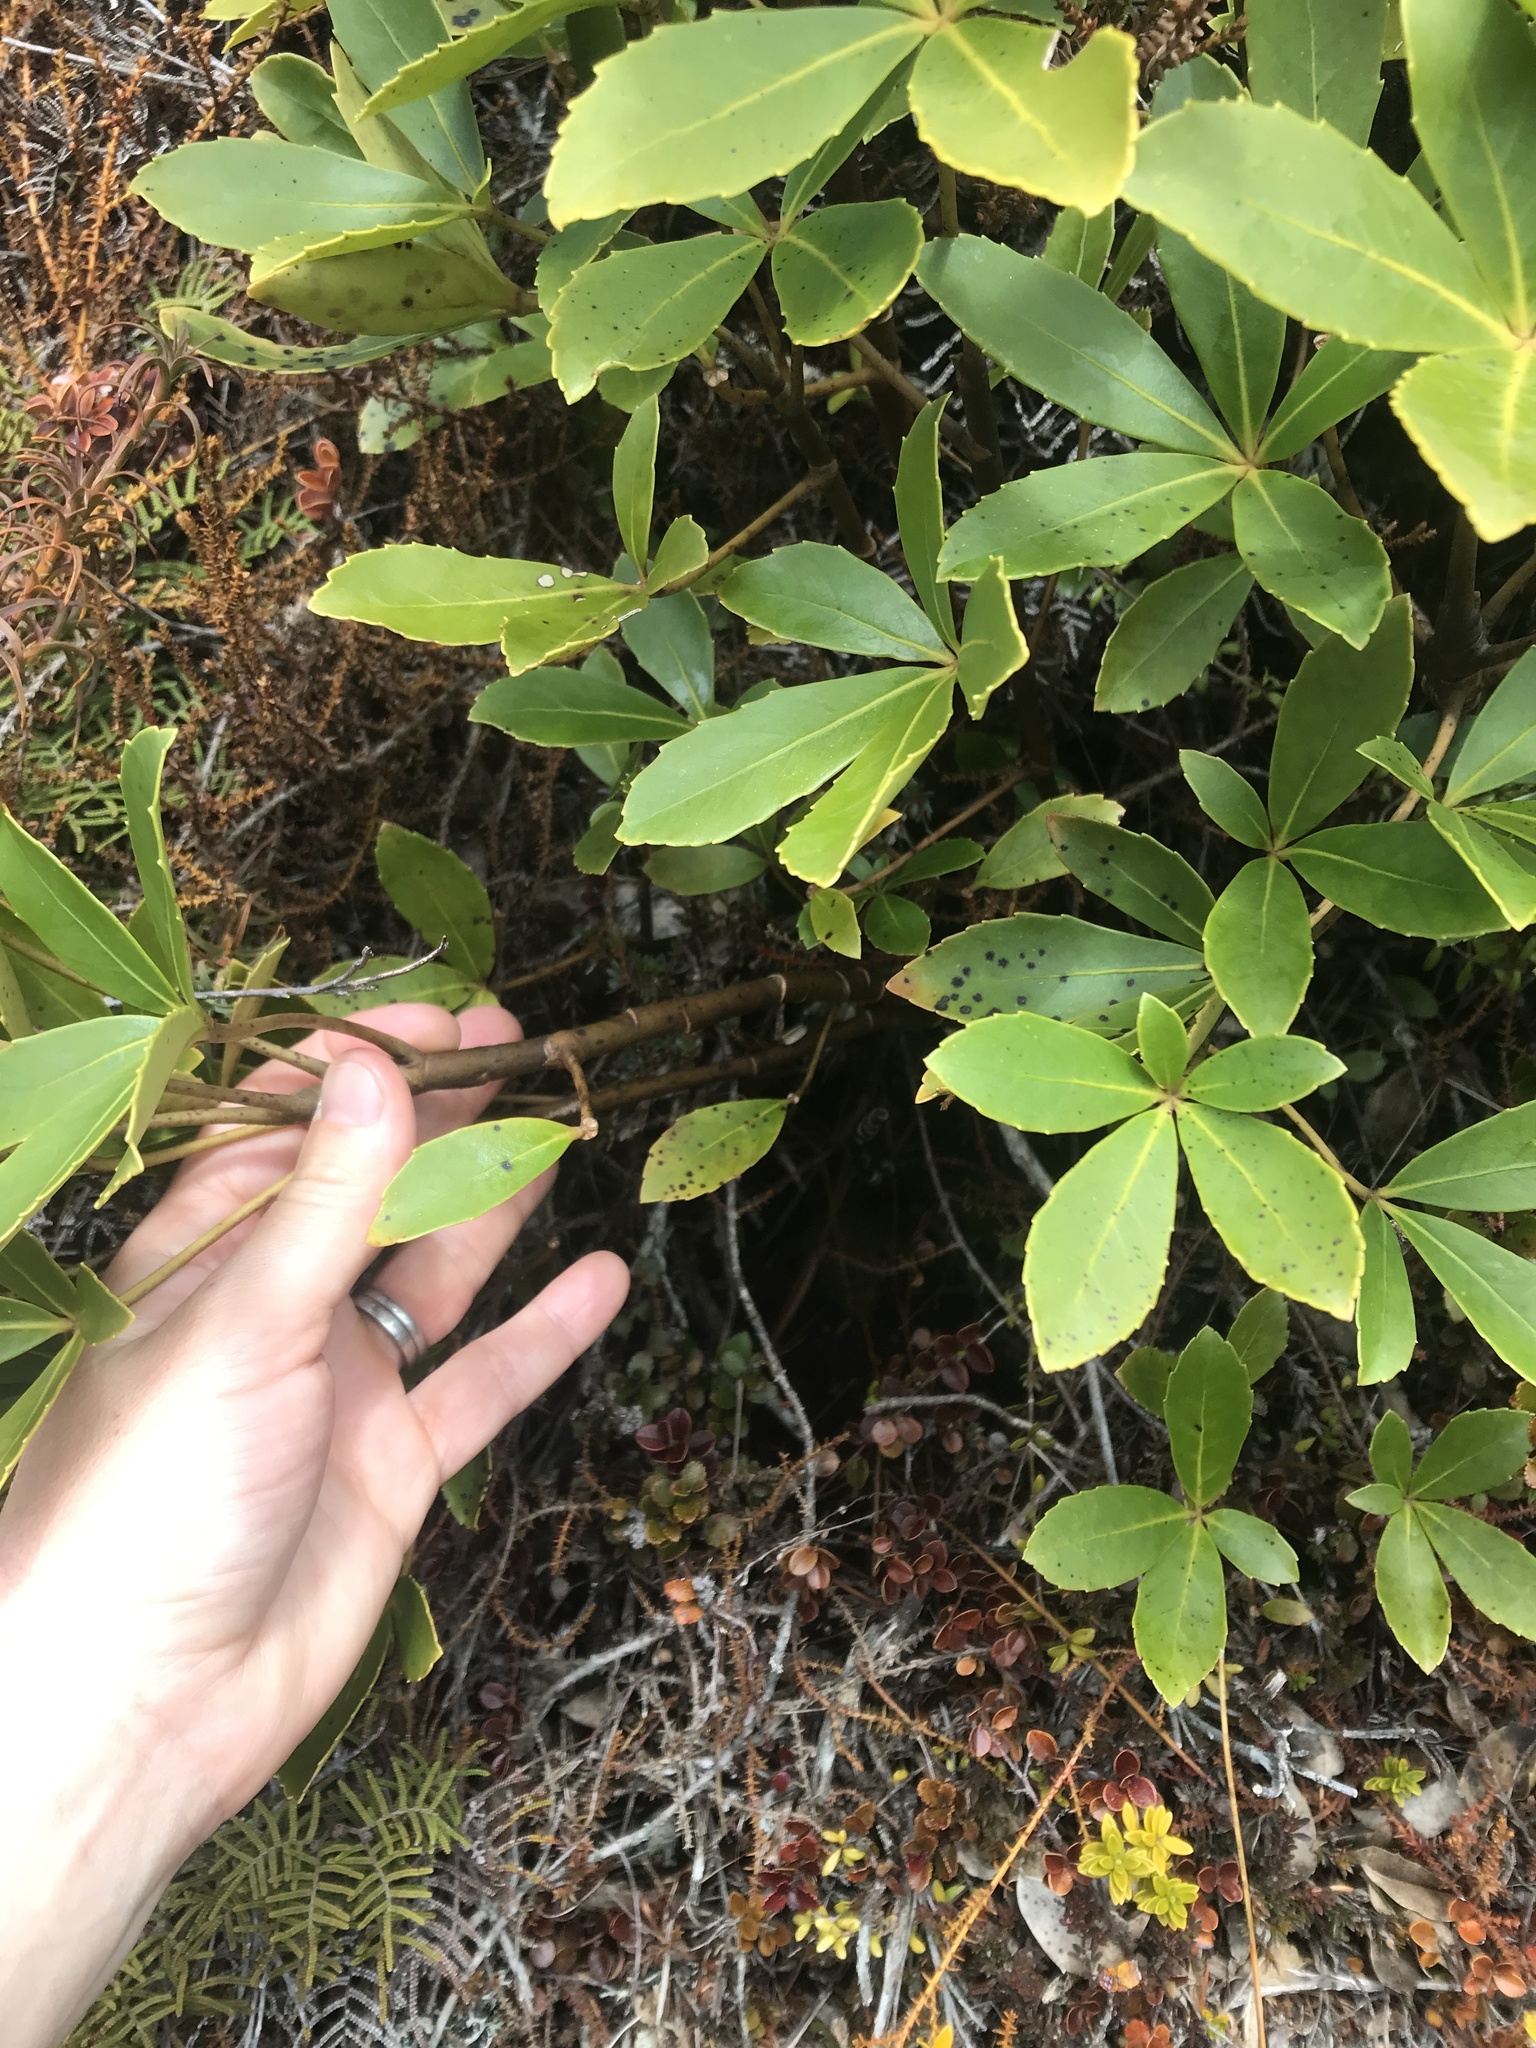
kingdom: Plantae
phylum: Tracheophyta
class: Magnoliopsida
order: Apiales
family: Araliaceae
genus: Neopanax
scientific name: Neopanax colensoi
